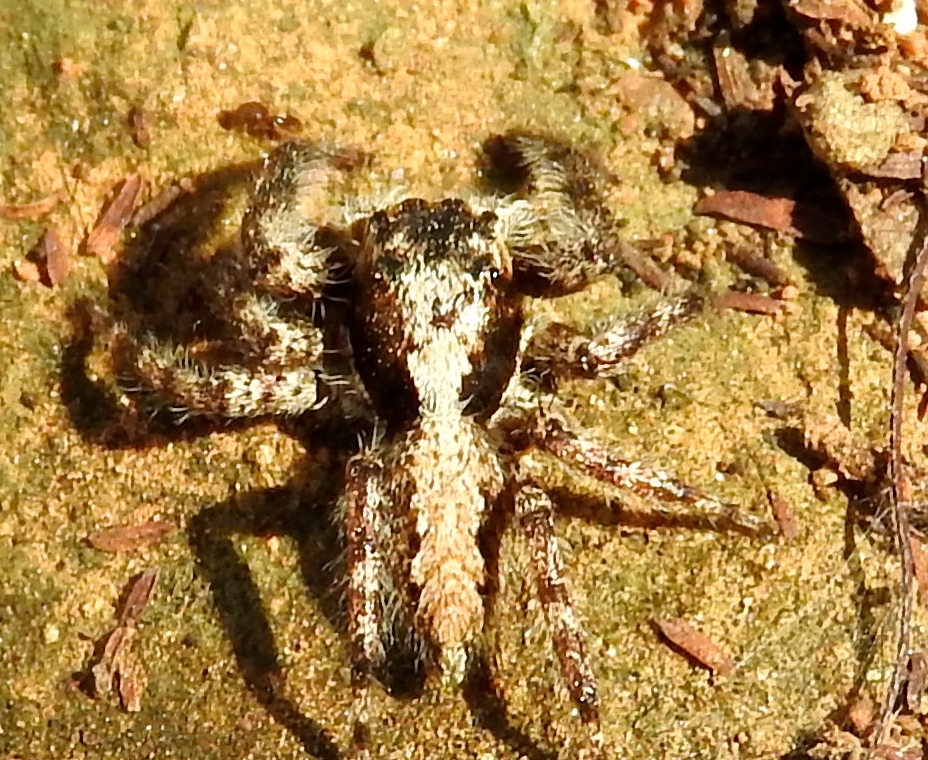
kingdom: Animalia
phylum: Arthropoda
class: Arachnida
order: Araneae
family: Salticidae
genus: Balmaceda
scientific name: Balmaceda
